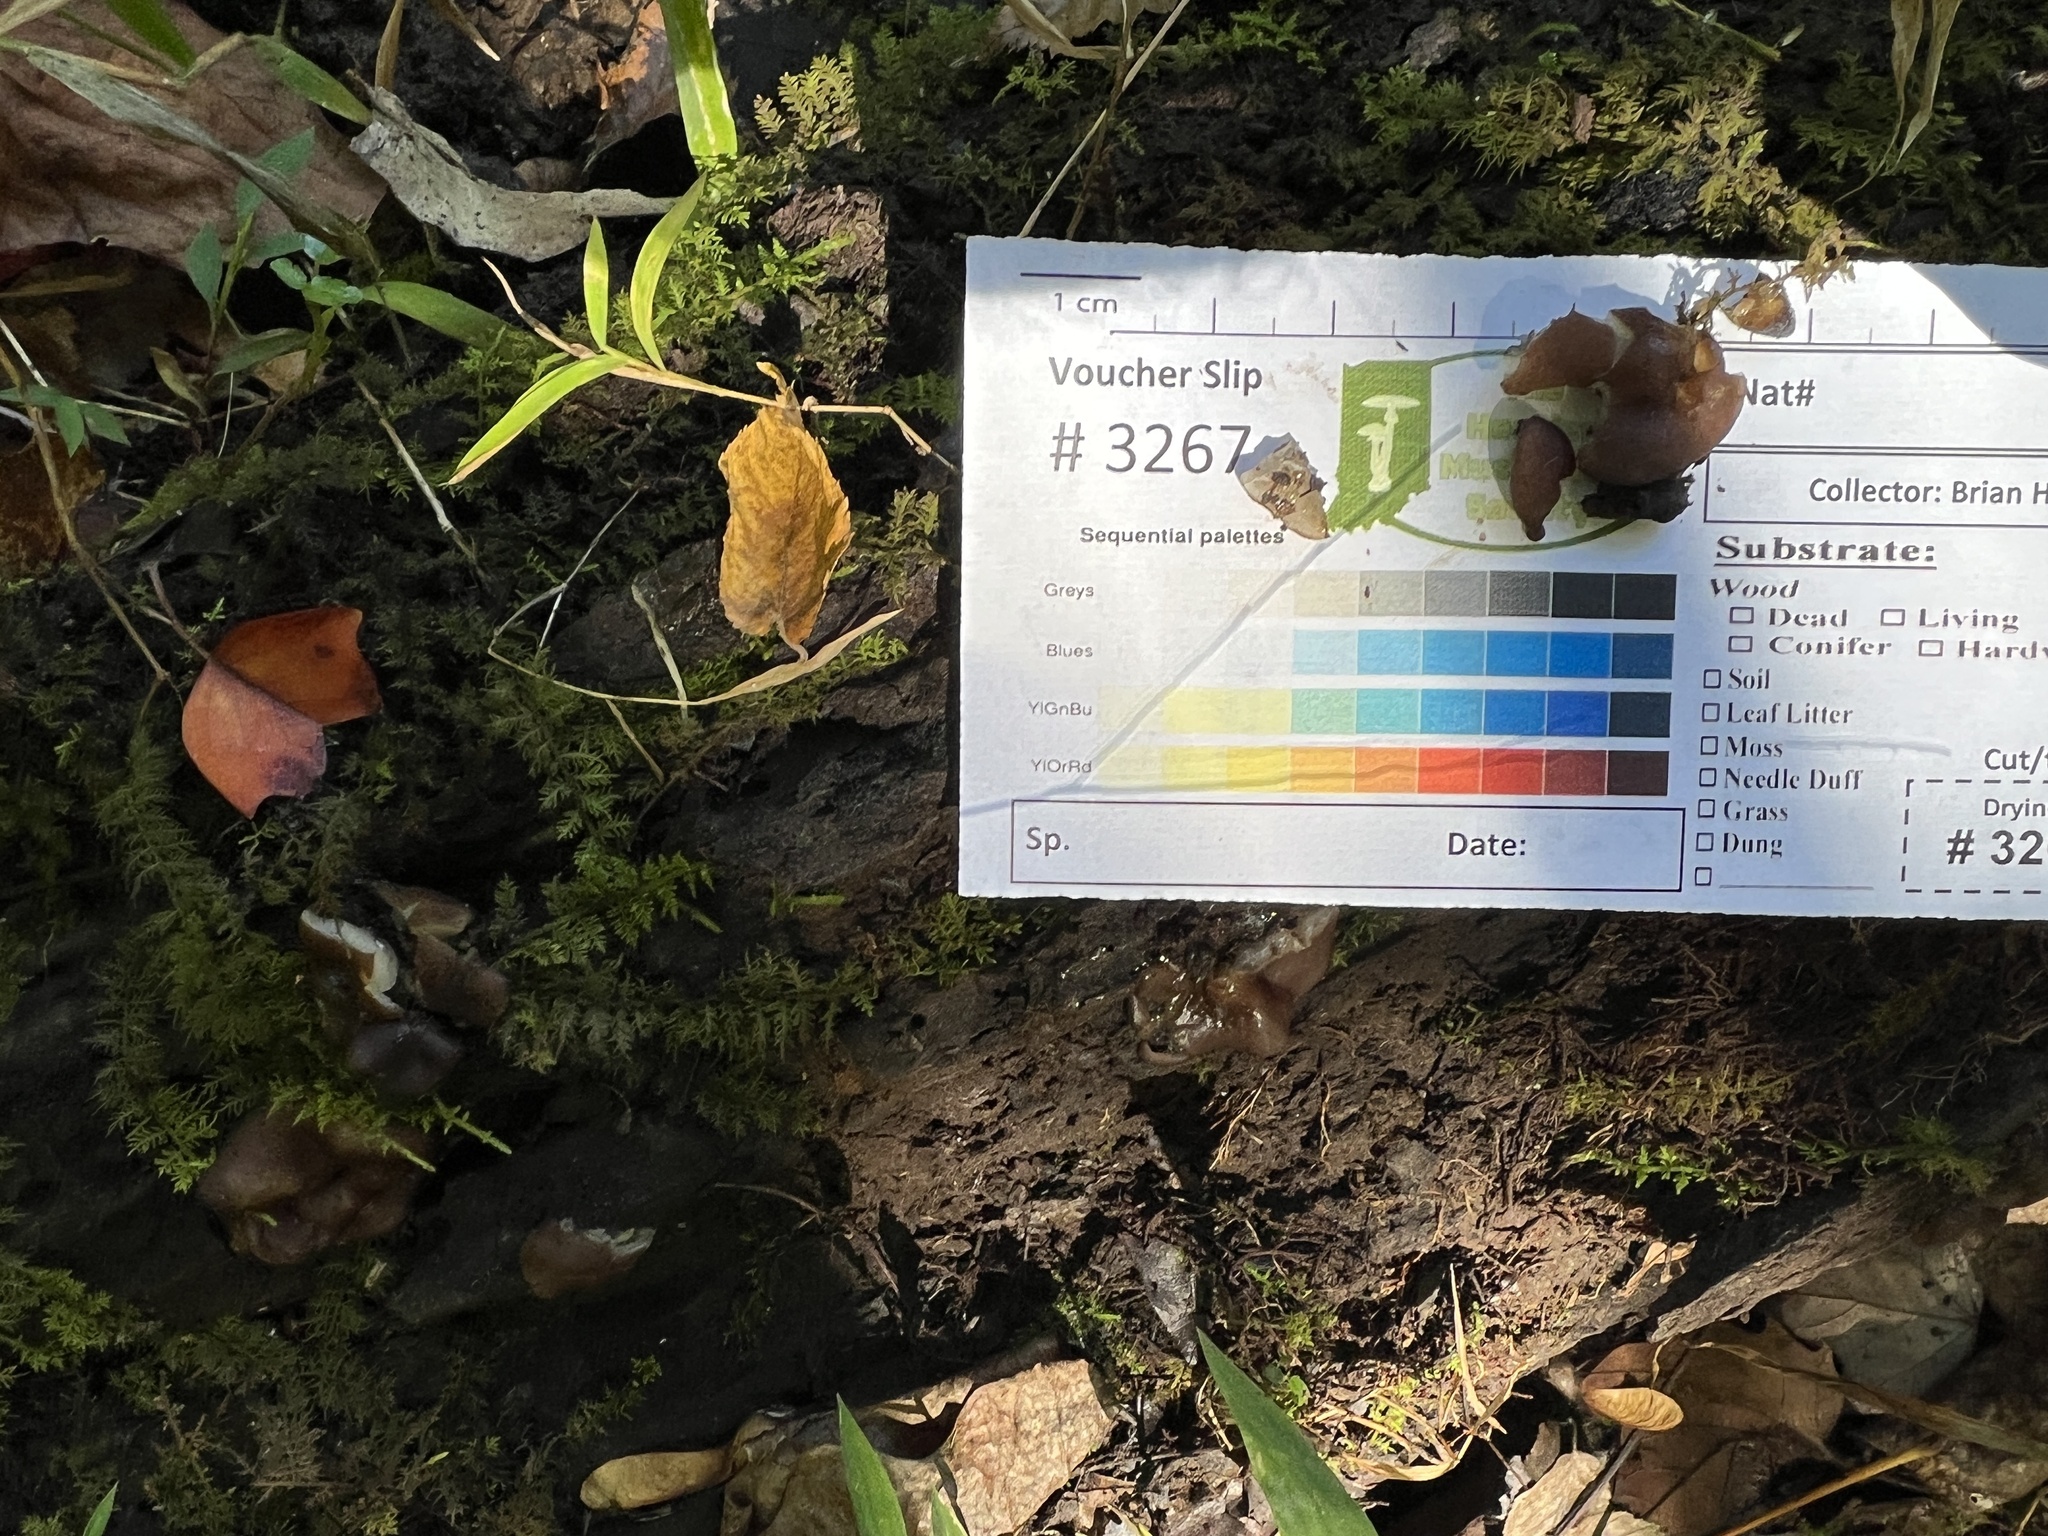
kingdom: Fungi
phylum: Ascomycota
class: Pezizomycetes
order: Pezizales
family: Pezizaceae
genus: Pachyella
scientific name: Pachyella clypeata
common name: Copper penny fungus
